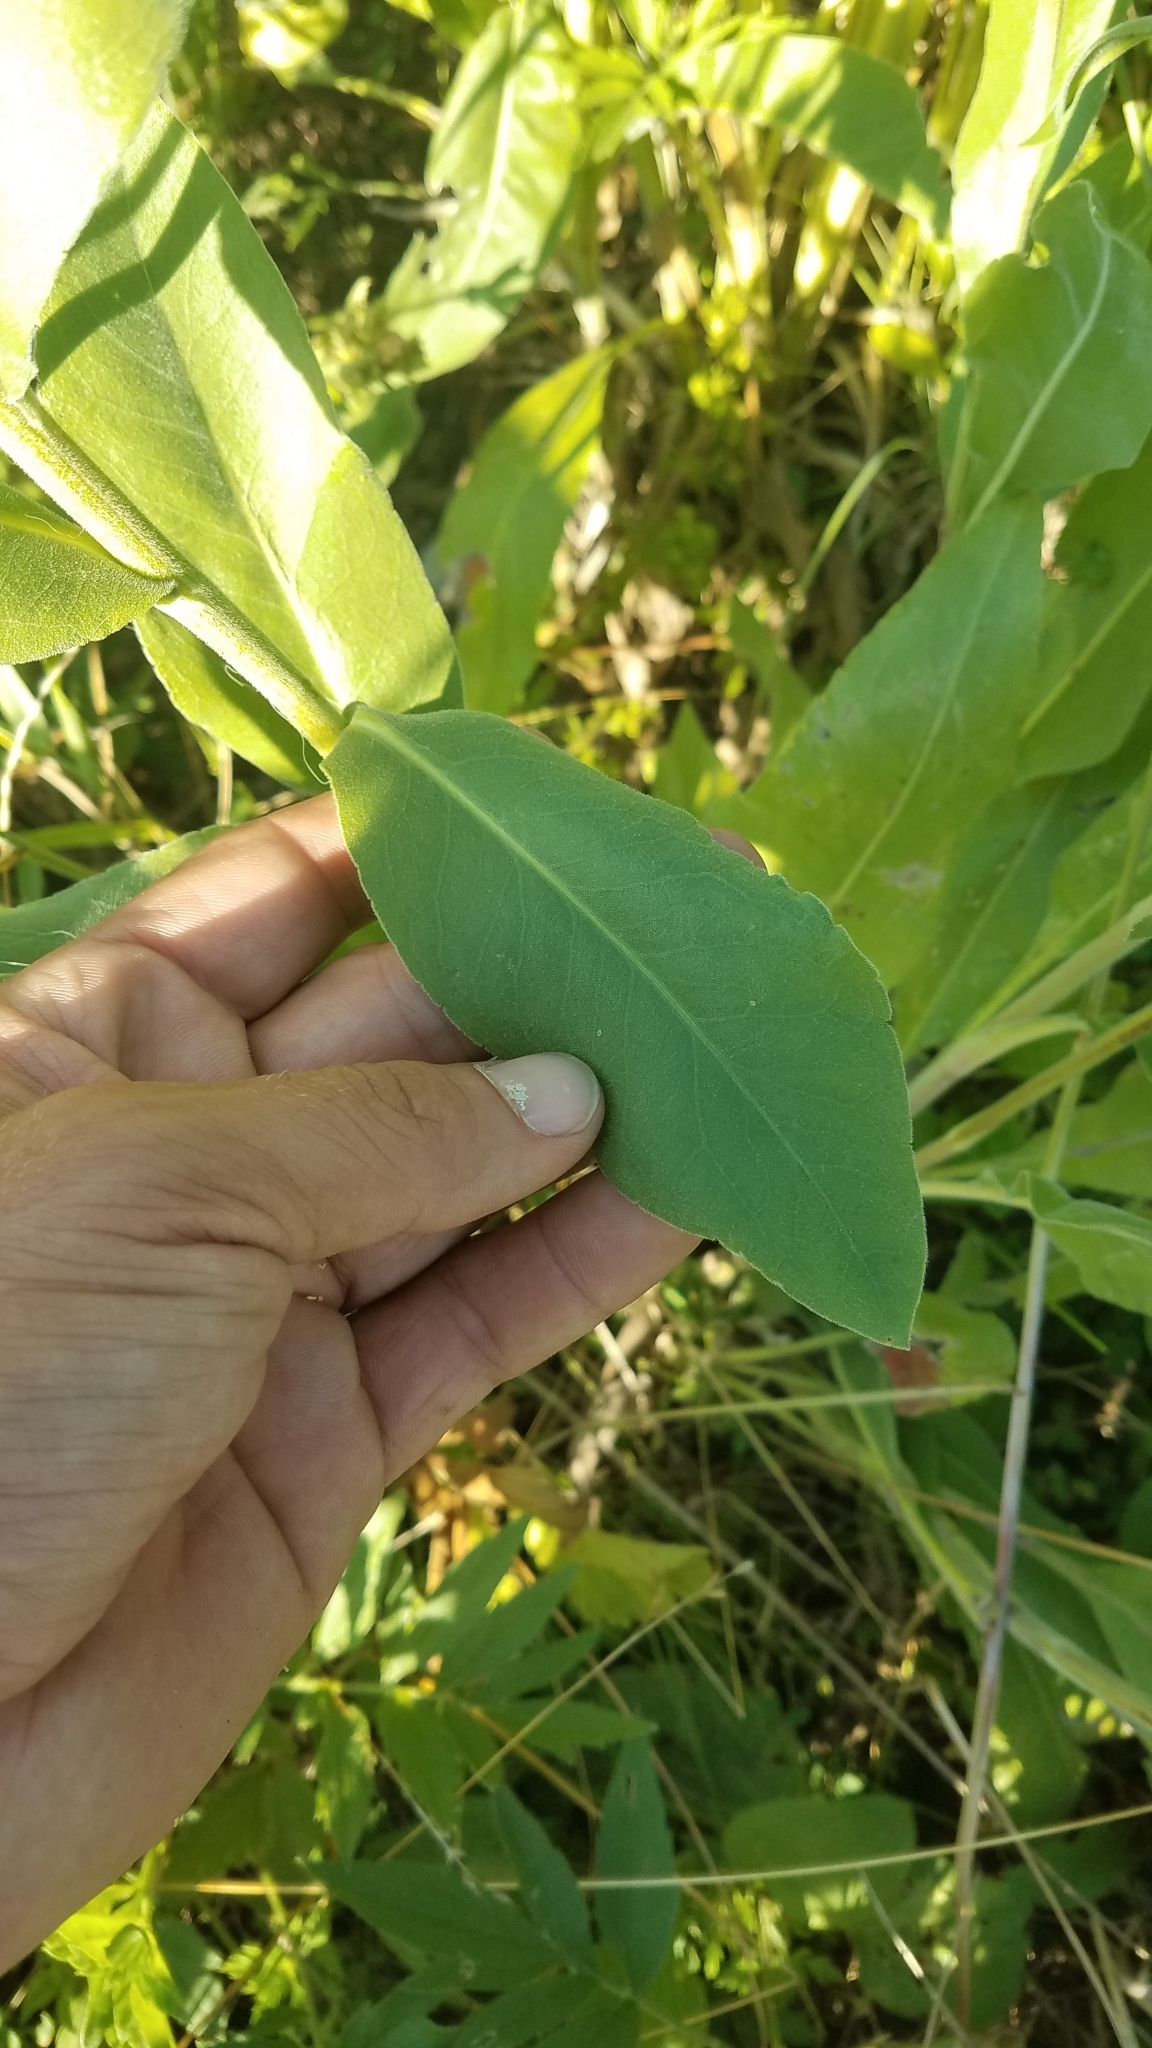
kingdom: Plantae
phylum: Tracheophyta
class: Magnoliopsida
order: Asterales
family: Asteraceae
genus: Solidago
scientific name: Solidago rigida
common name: Rigid goldenrod
